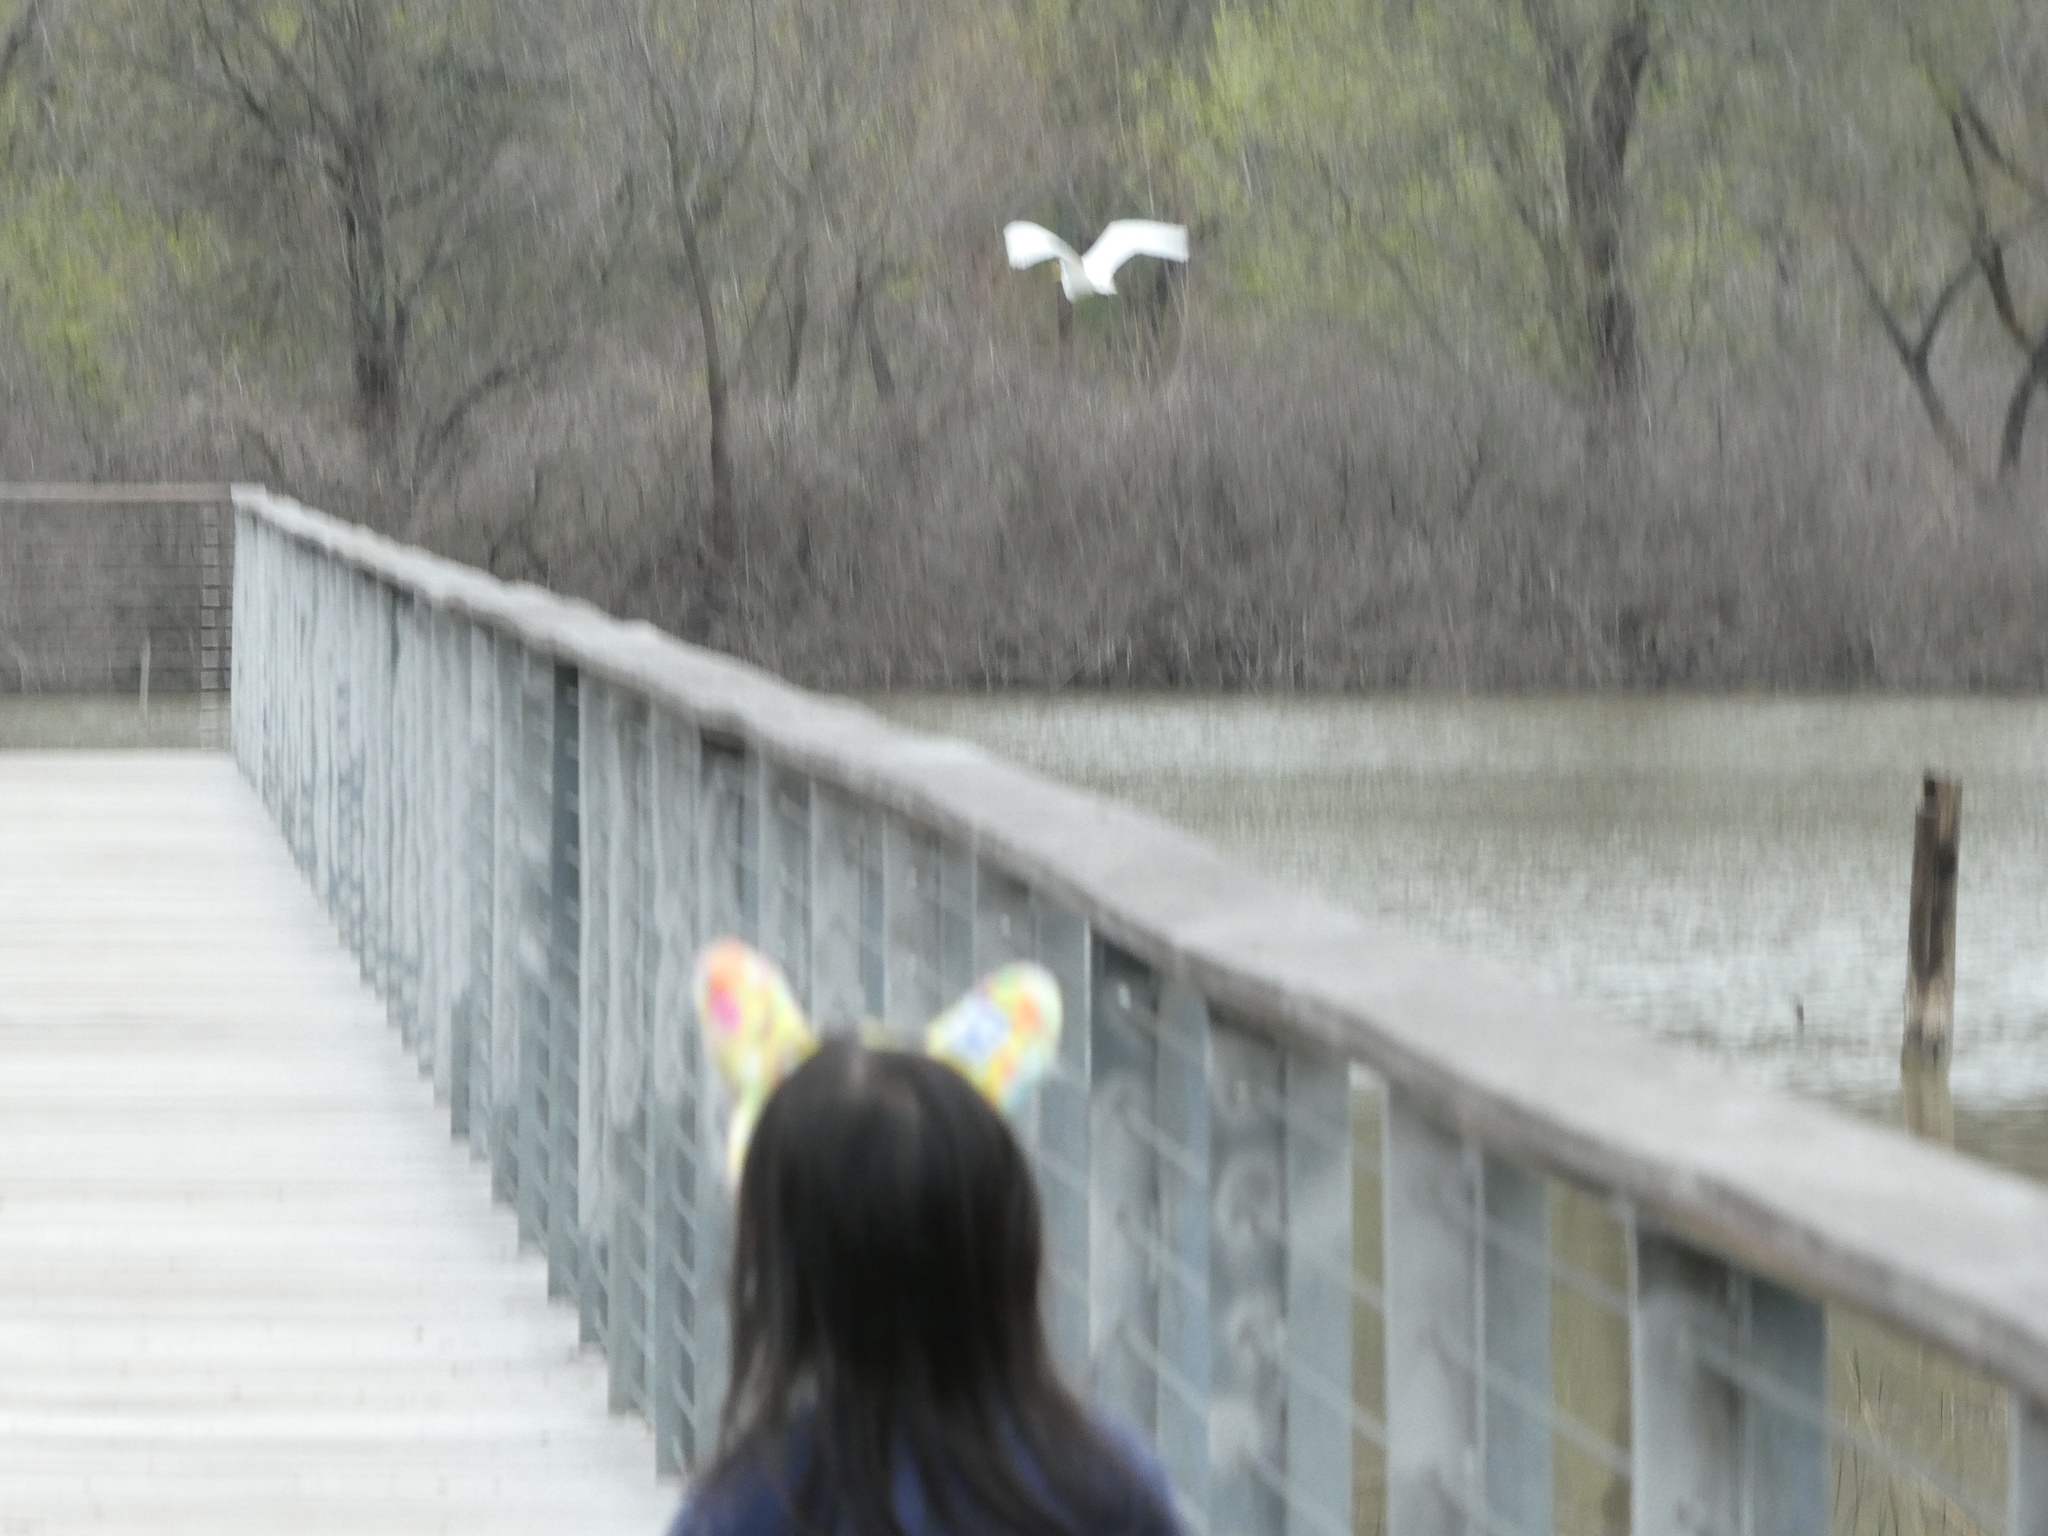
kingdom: Animalia
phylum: Chordata
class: Aves
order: Pelecaniformes
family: Ardeidae
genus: Ardea
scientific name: Ardea alba
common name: Great egret
